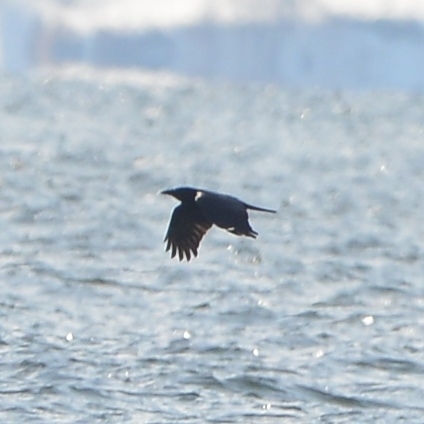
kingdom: Animalia
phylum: Chordata
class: Aves
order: Passeriformes
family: Corvidae
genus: Corvus
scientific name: Corvus corax
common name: Common raven
